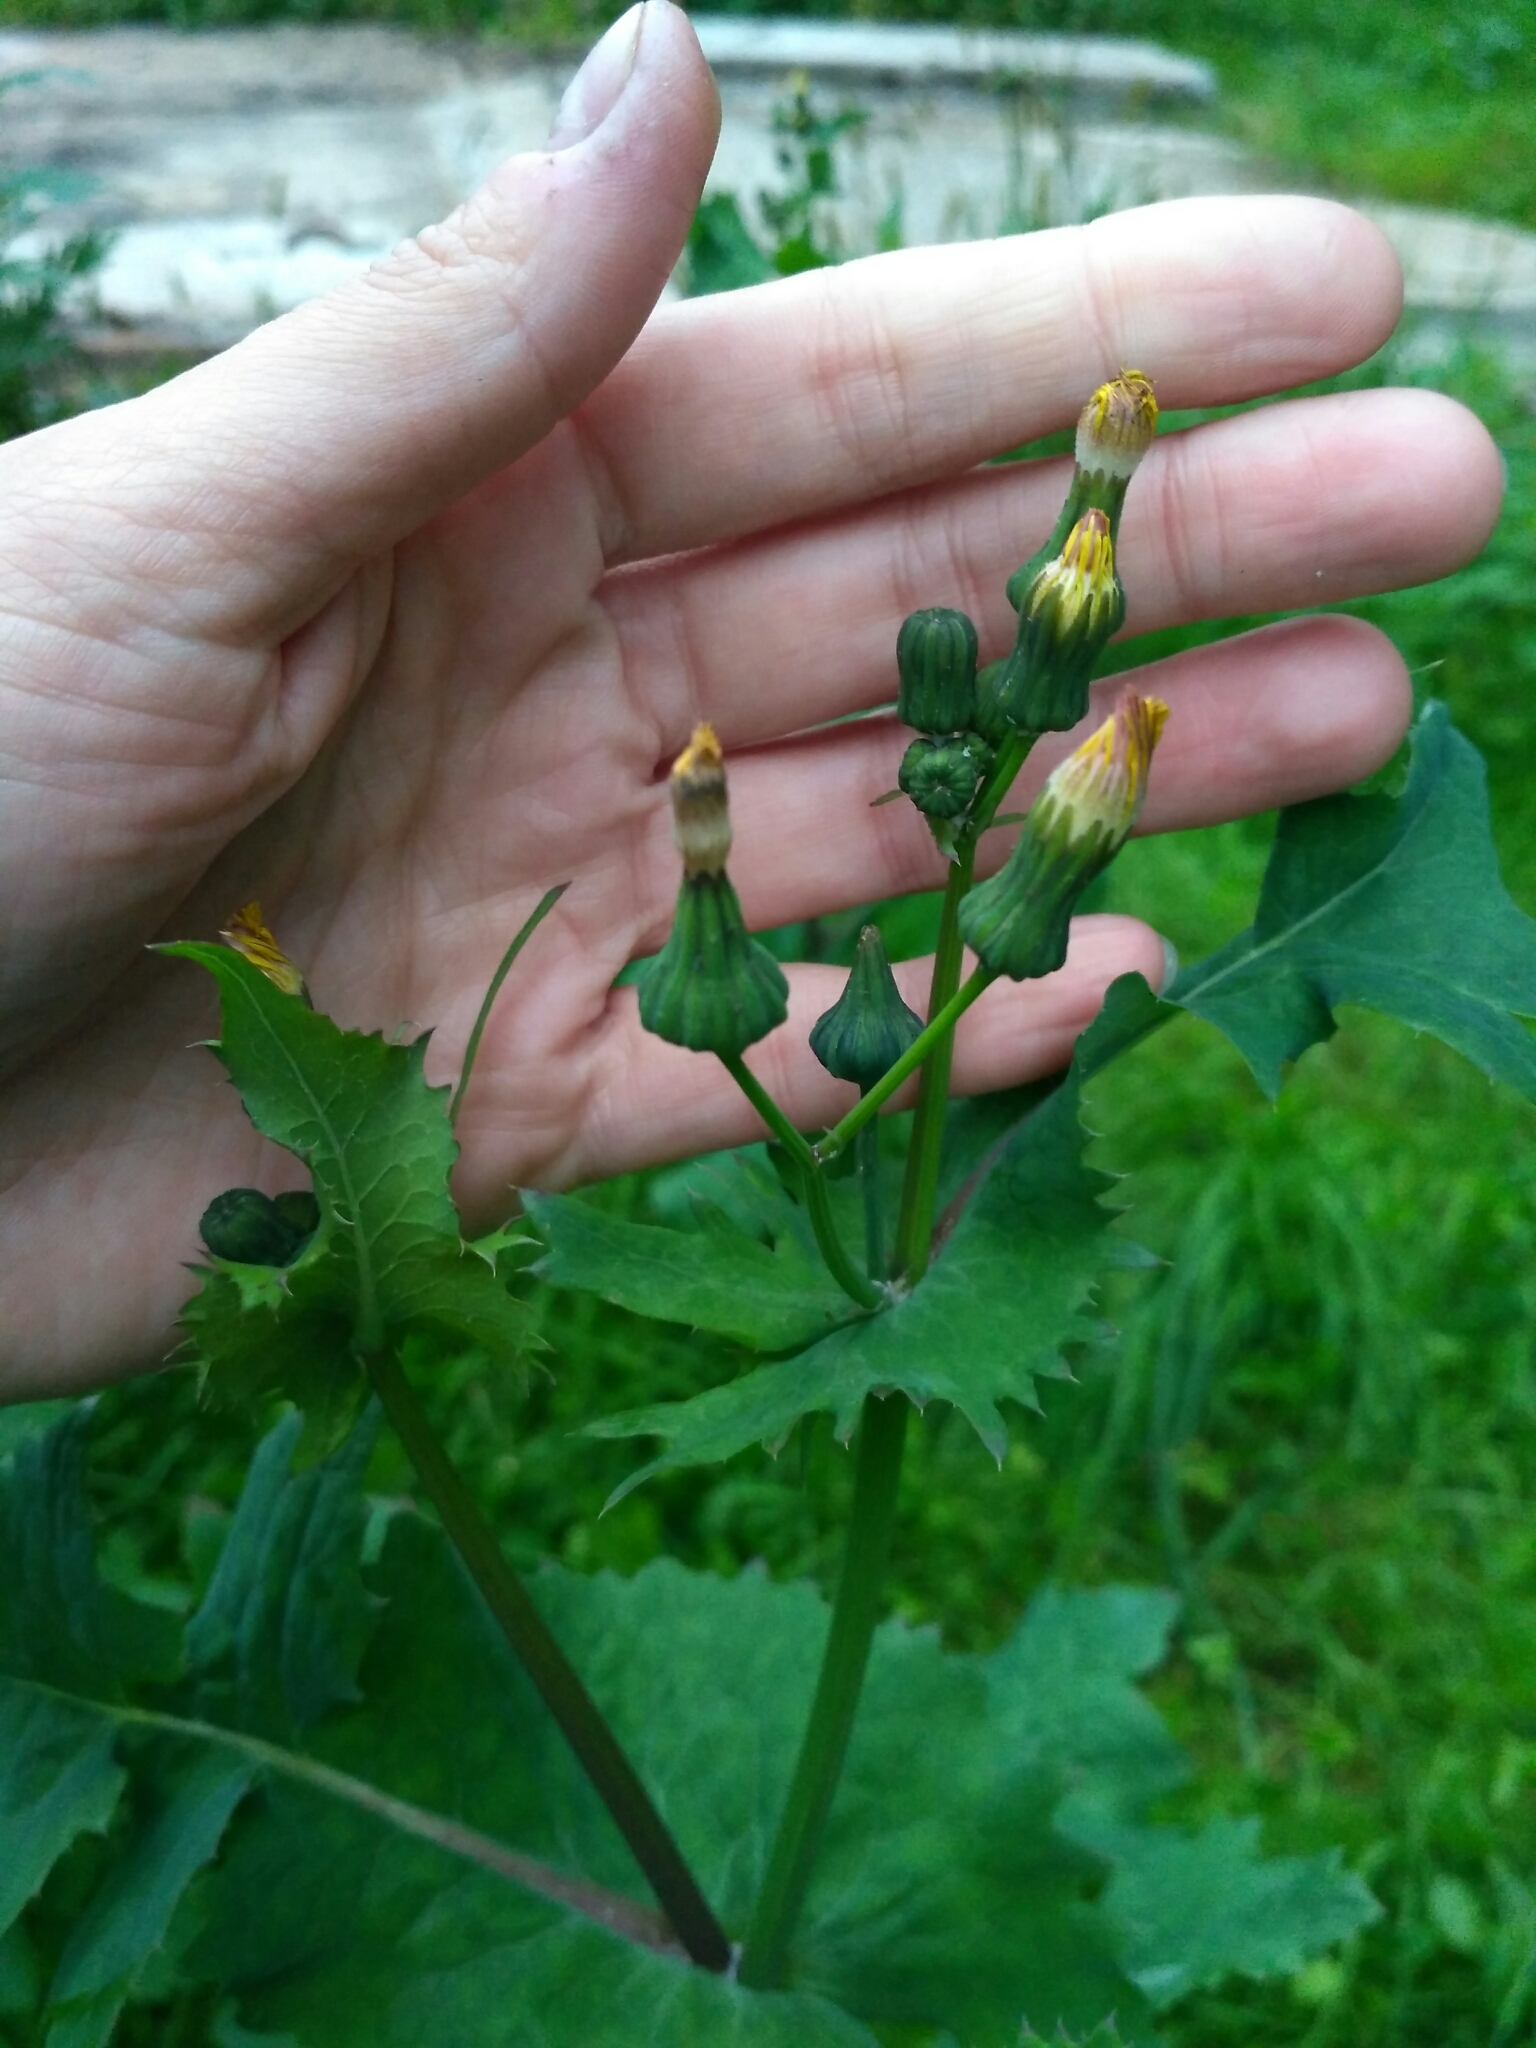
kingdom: Plantae
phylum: Tracheophyta
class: Magnoliopsida
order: Asterales
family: Asteraceae
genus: Sonchus
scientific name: Sonchus oleraceus
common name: Common sowthistle
